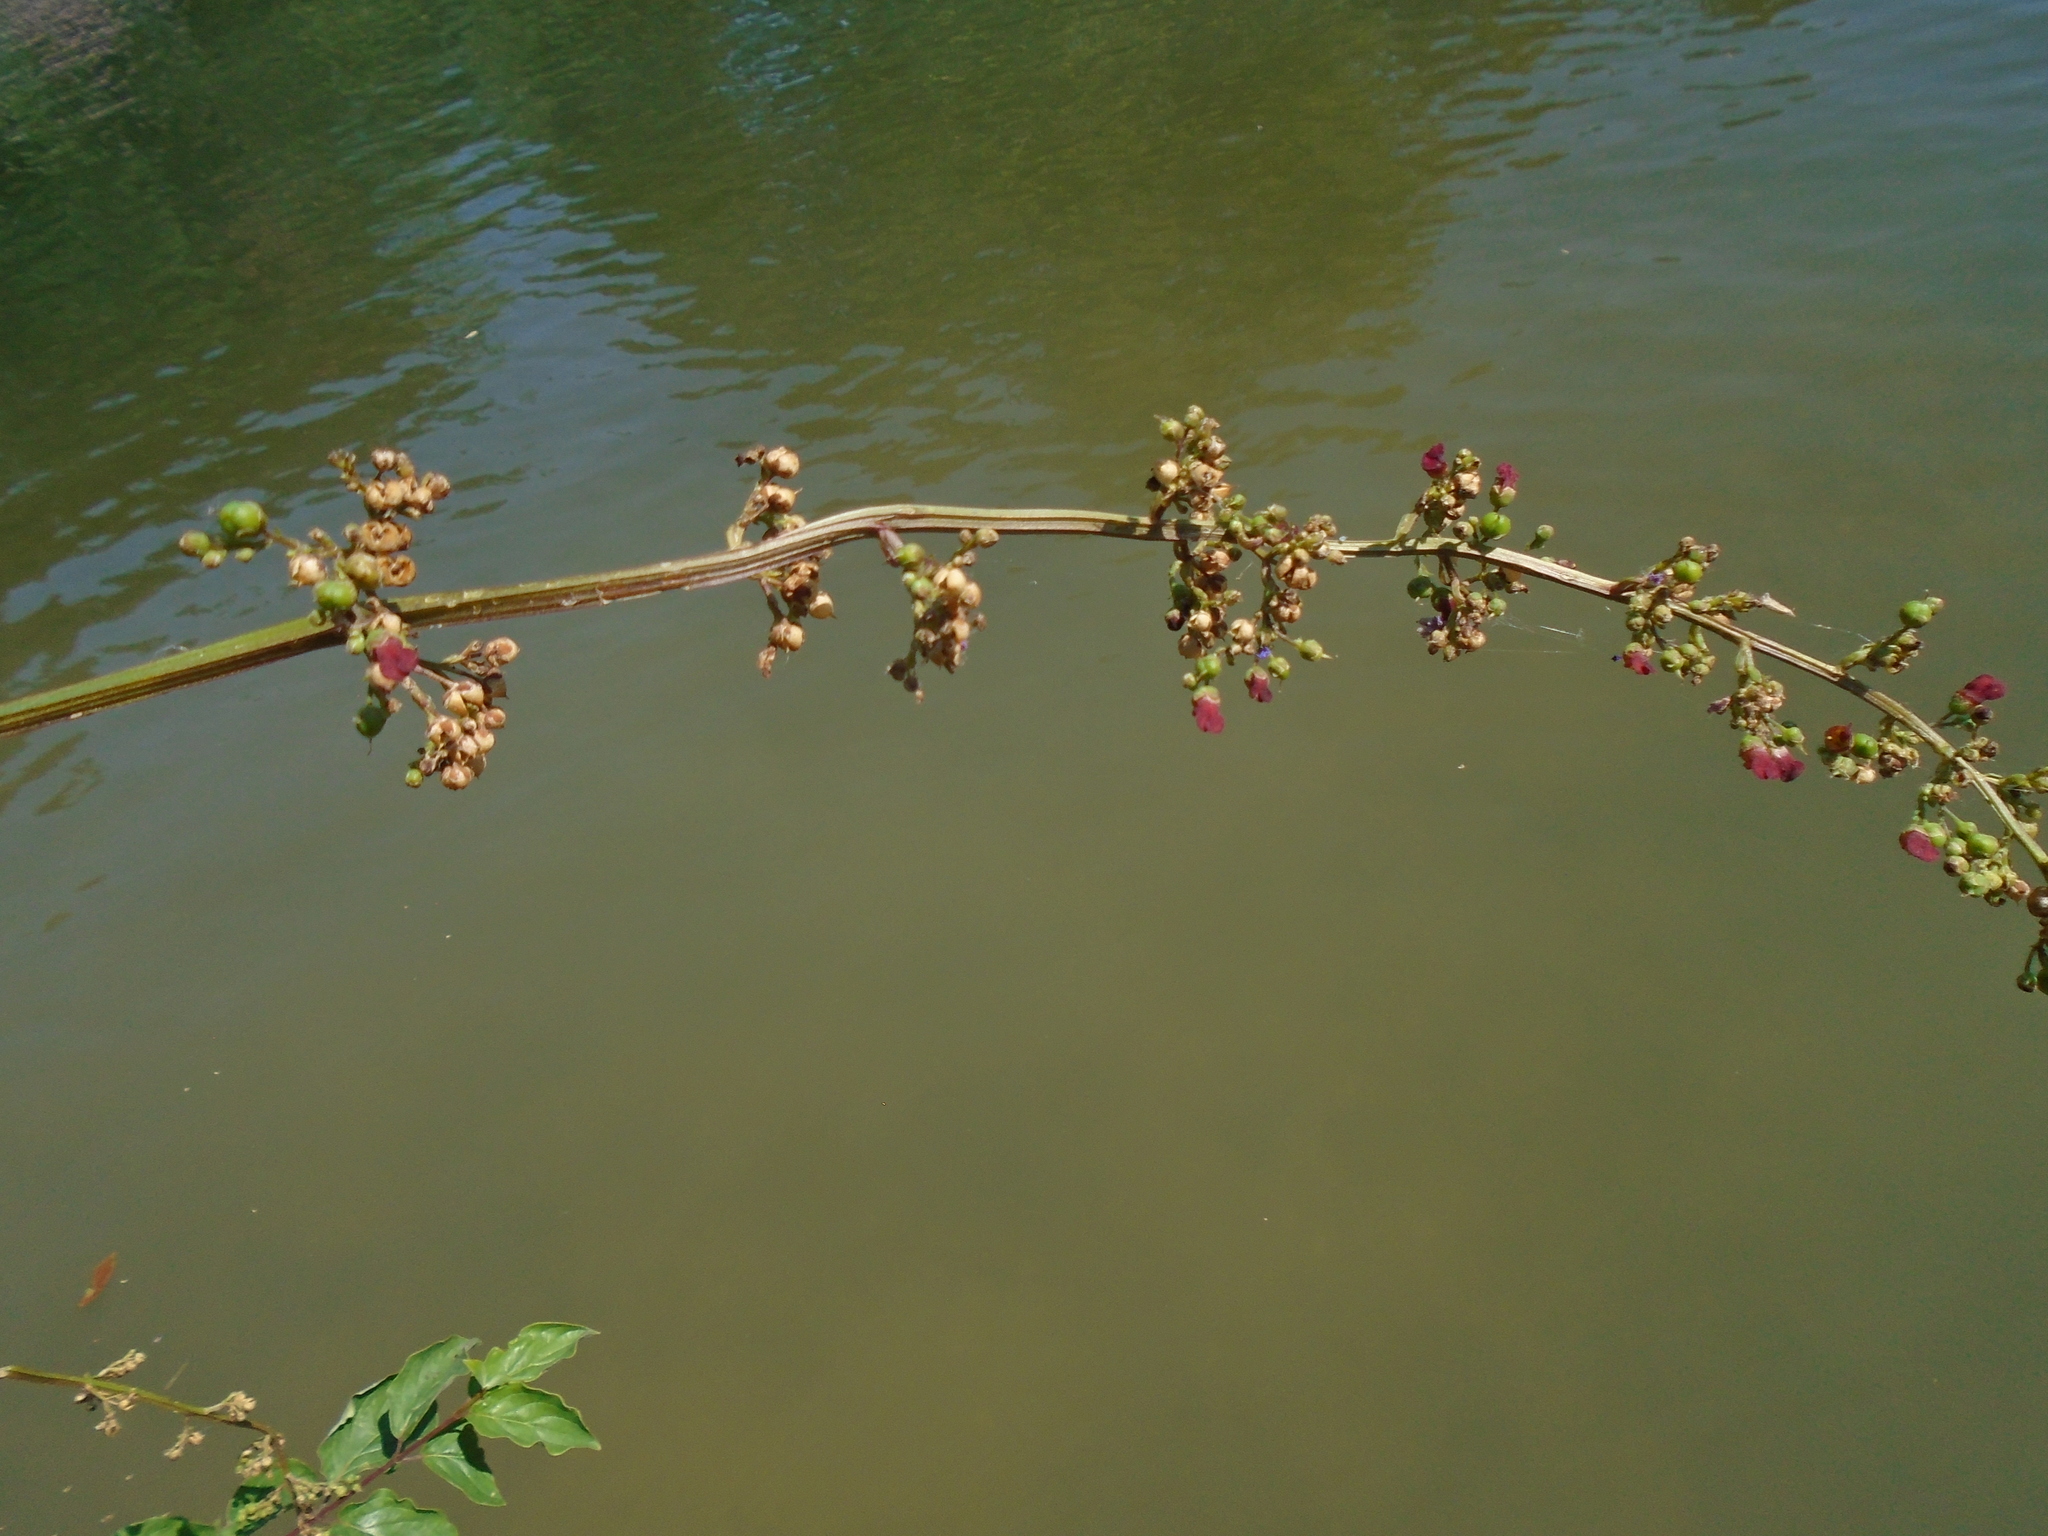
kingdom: Plantae
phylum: Tracheophyta
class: Magnoliopsida
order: Lamiales
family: Scrophulariaceae
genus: Scrophularia
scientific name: Scrophularia auriculata
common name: Water betony
